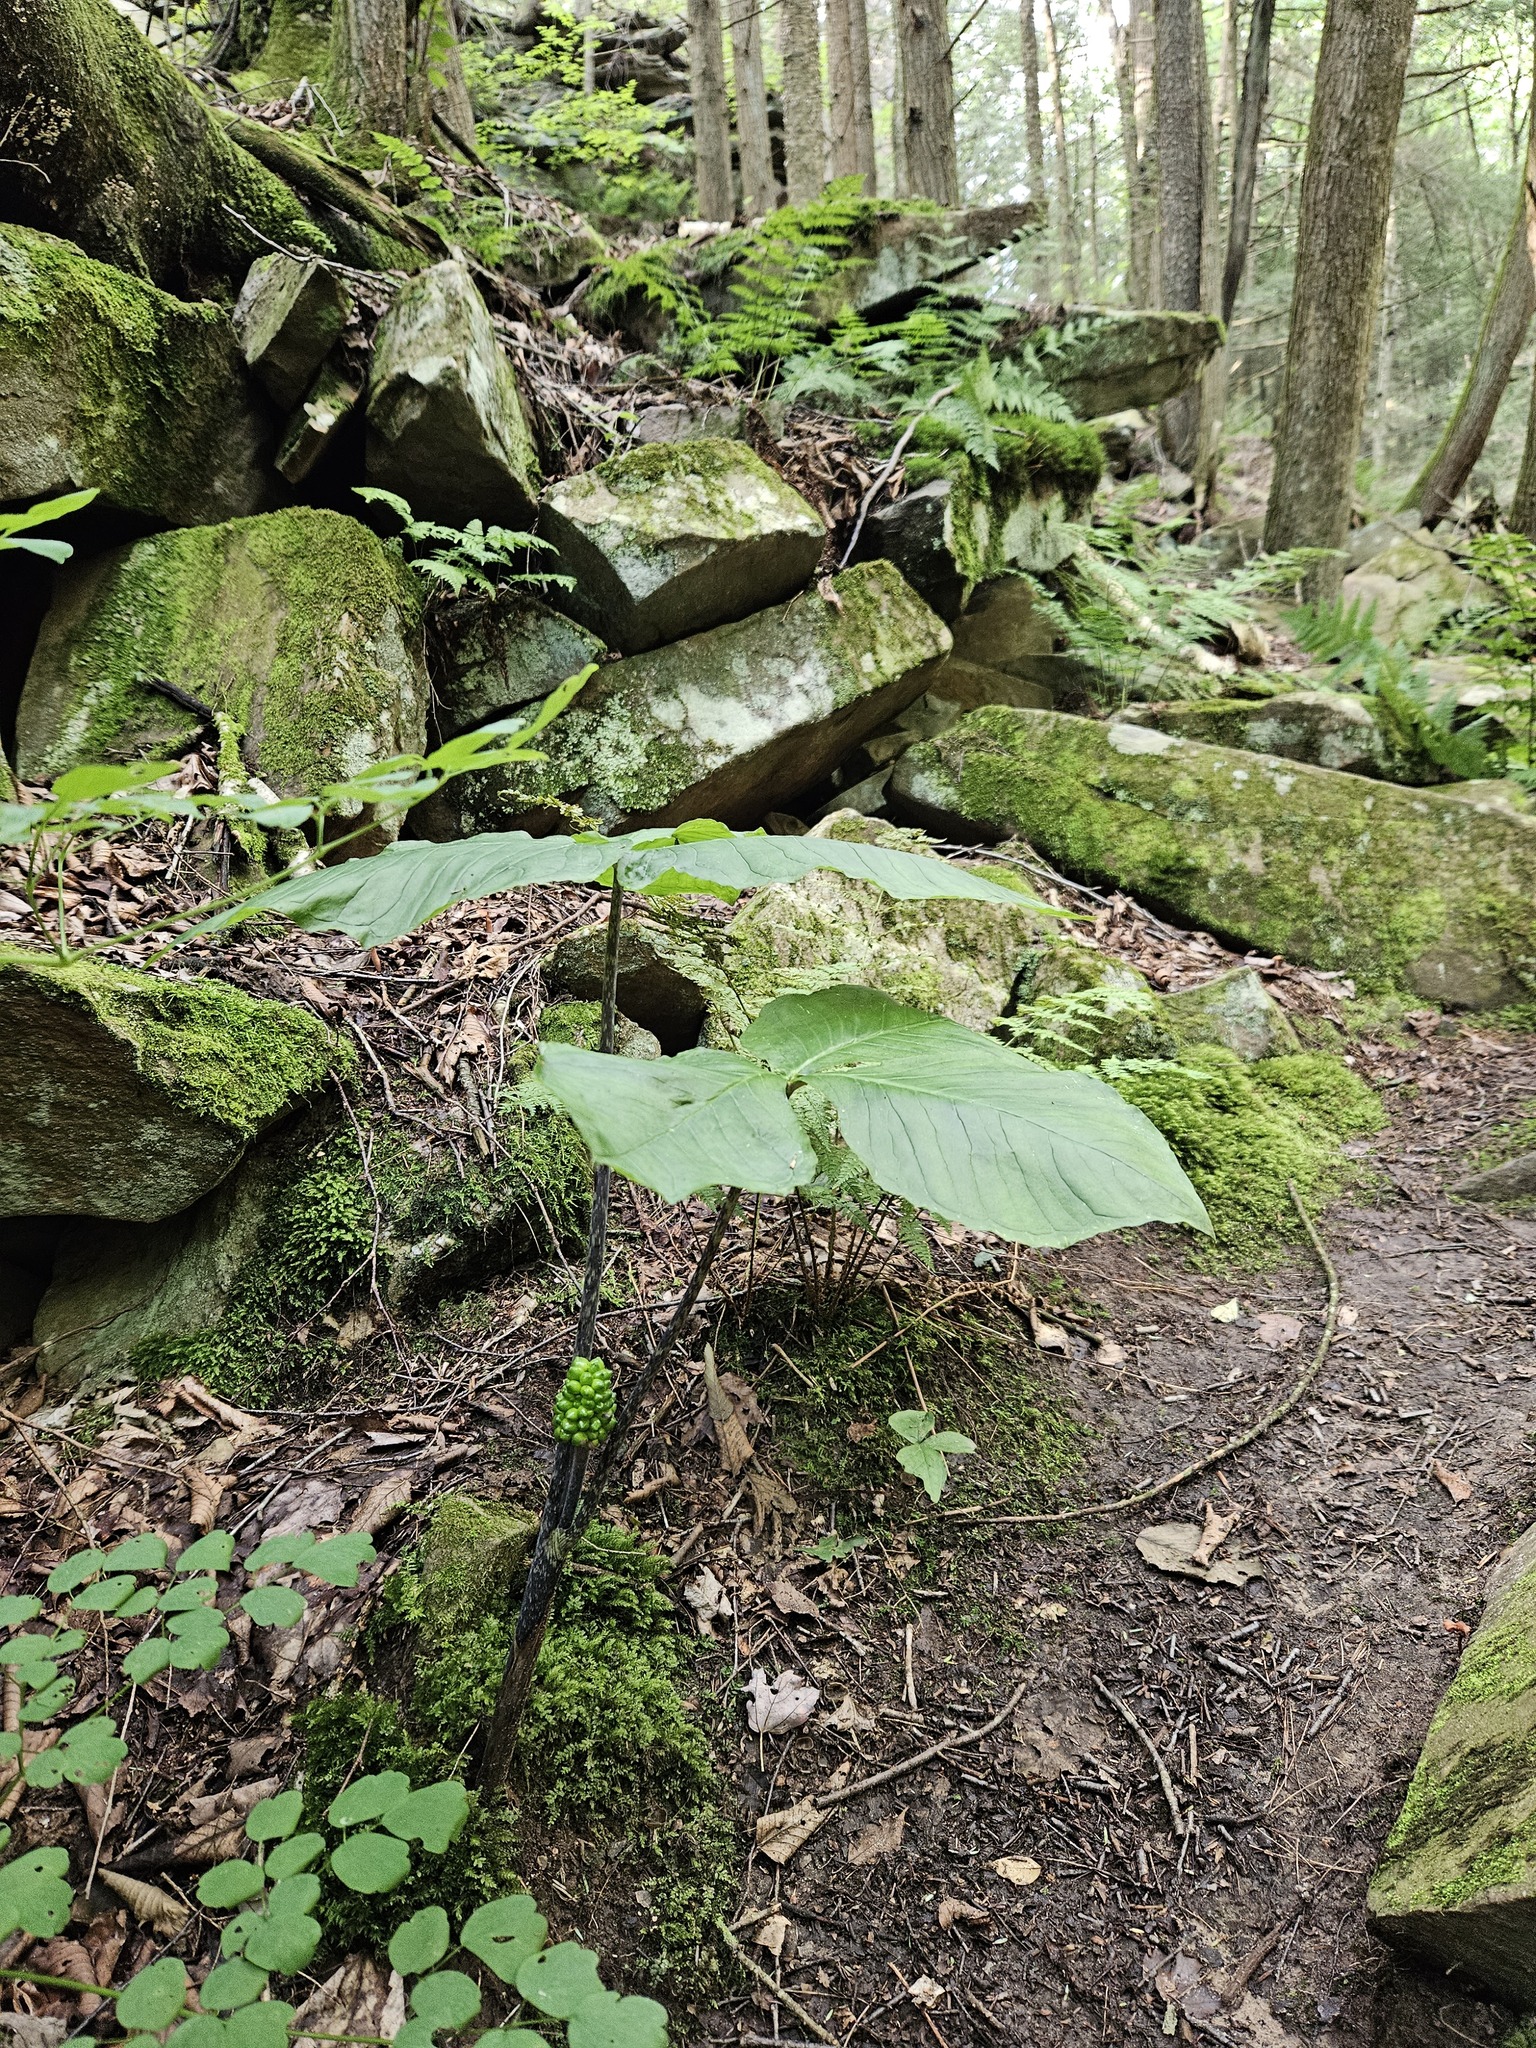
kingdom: Plantae
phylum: Tracheophyta
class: Liliopsida
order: Alismatales
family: Araceae
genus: Arisaema
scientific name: Arisaema triphyllum
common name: Jack-in-the-pulpit
